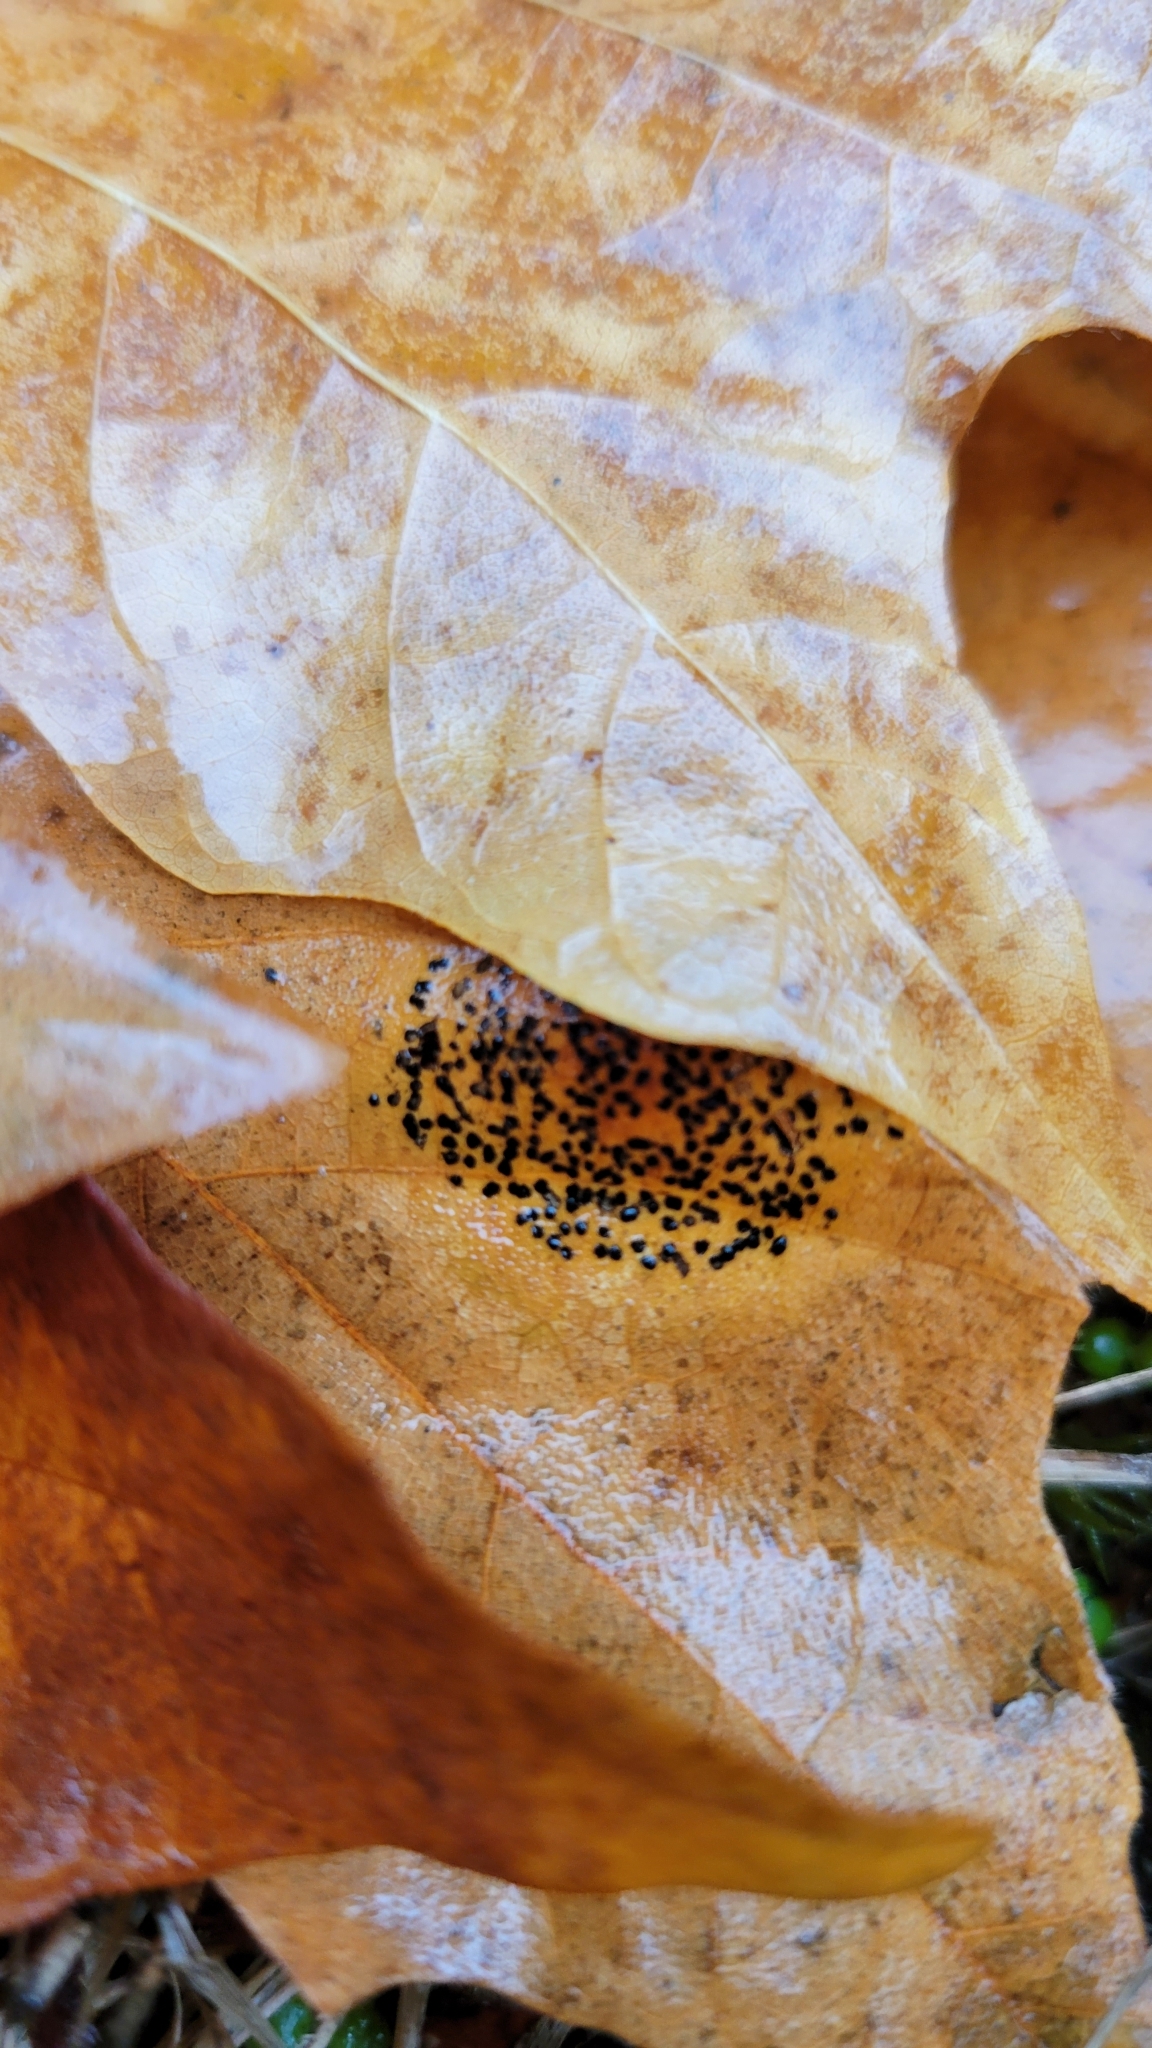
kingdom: Fungi
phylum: Ascomycota
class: Leotiomycetes
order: Rhytismatales
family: Rhytismataceae
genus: Rhytisma
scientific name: Rhytisma punctatum
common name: Speckled tar spot
